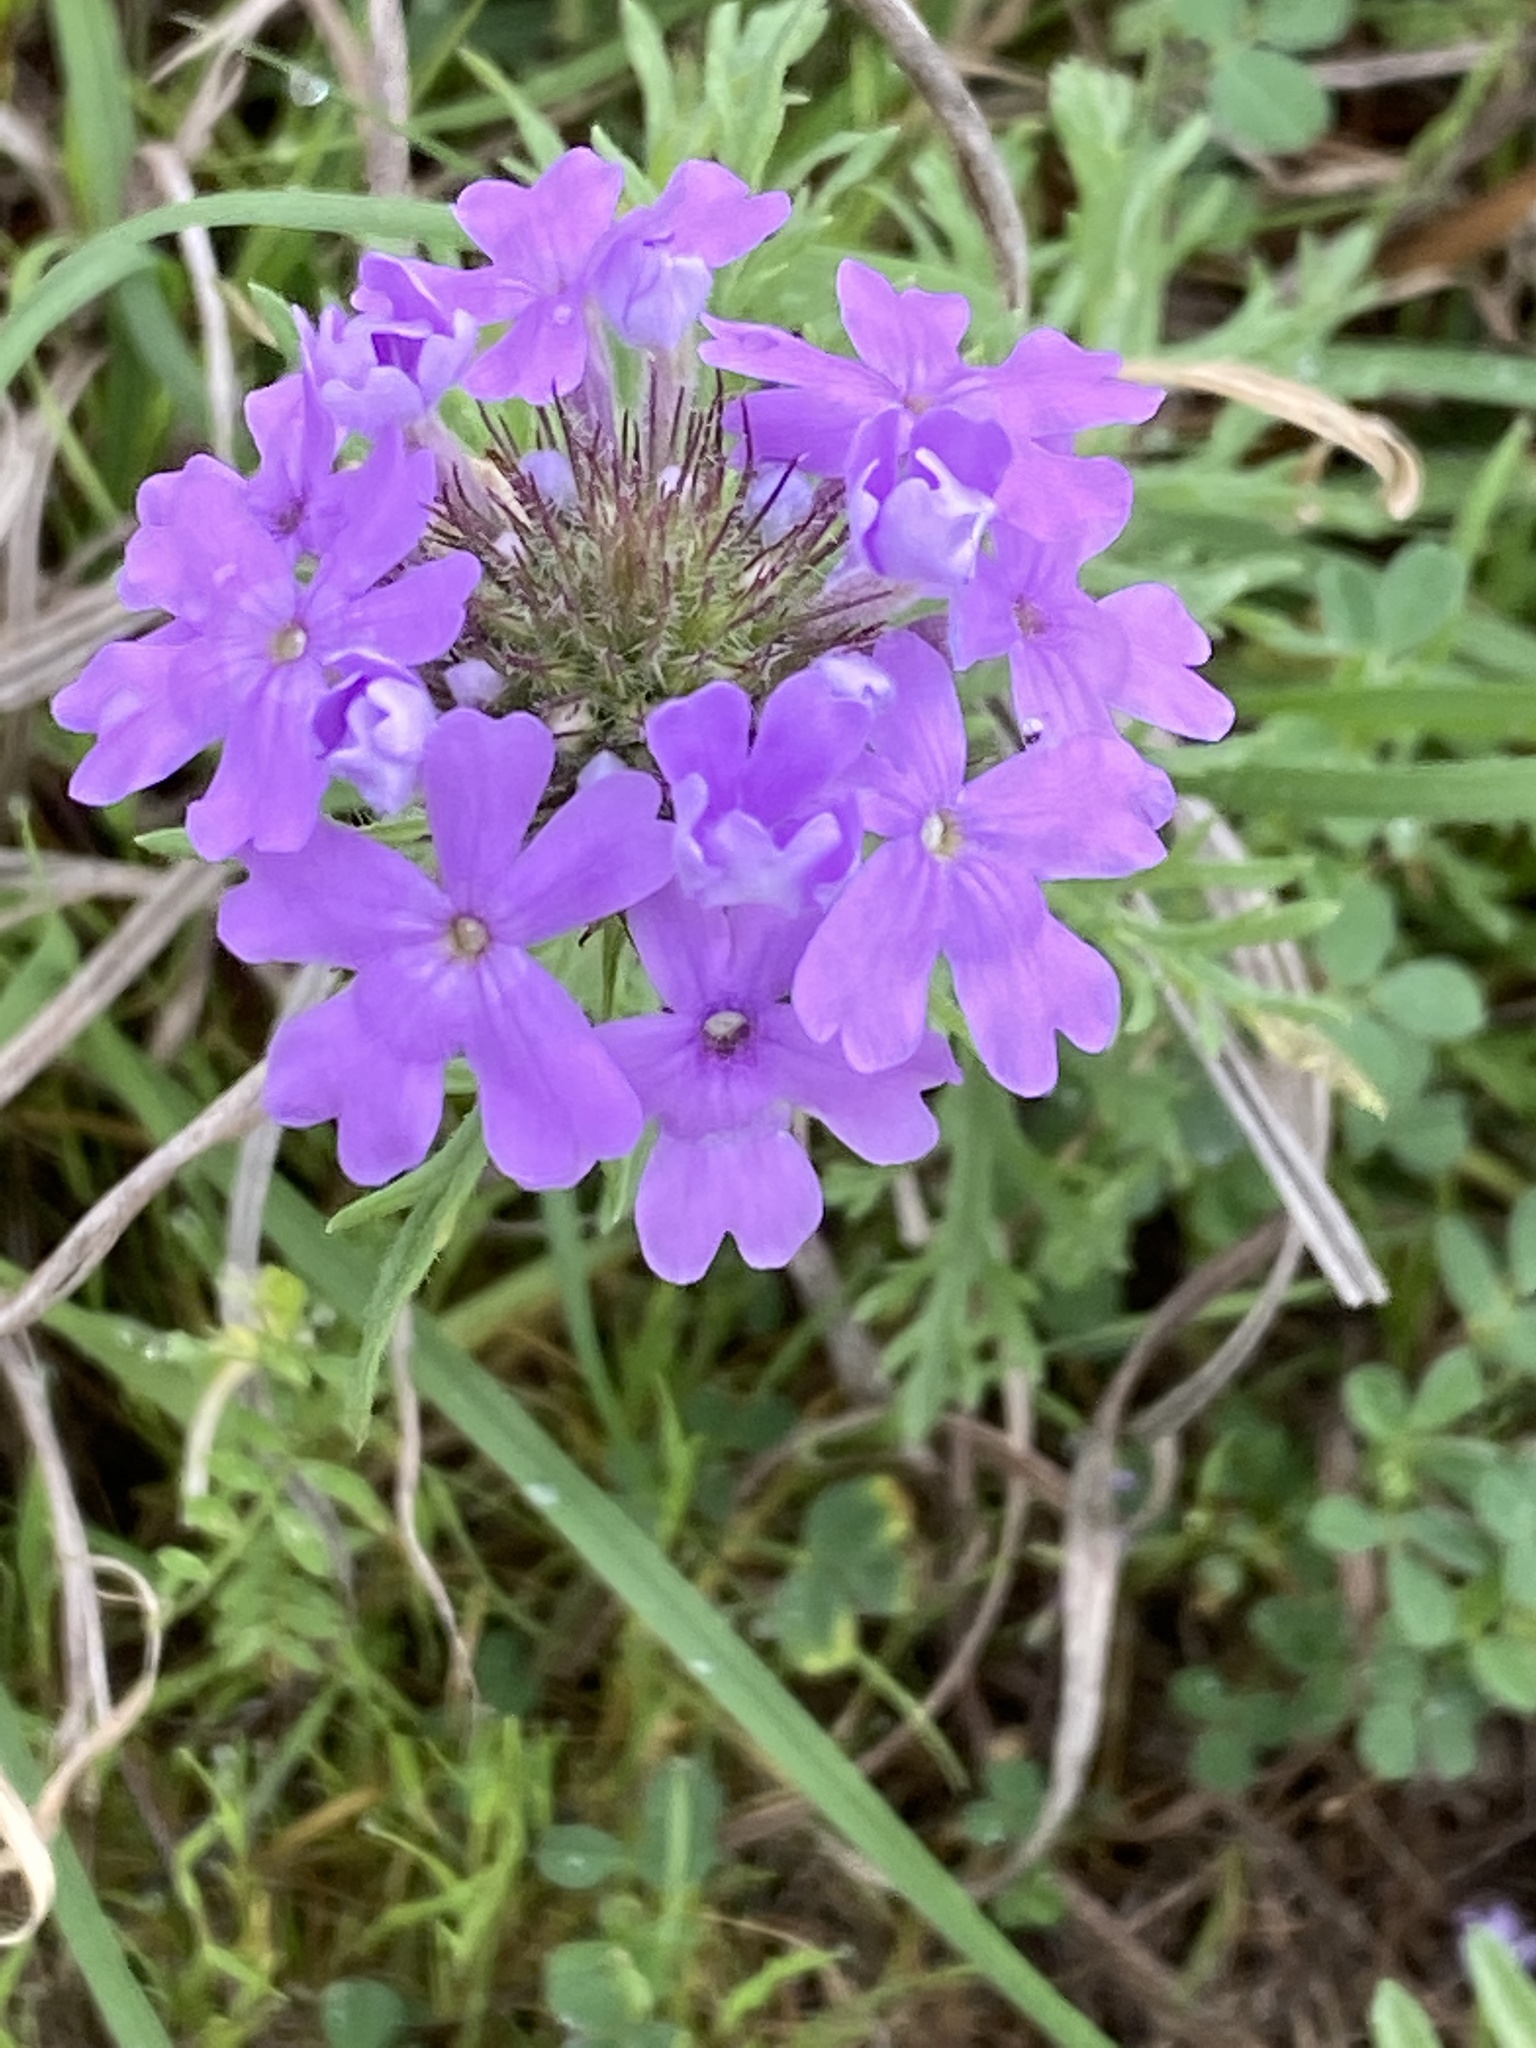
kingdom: Plantae
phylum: Tracheophyta
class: Magnoliopsida
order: Lamiales
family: Verbenaceae
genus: Verbena
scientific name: Verbena bipinnatifida
